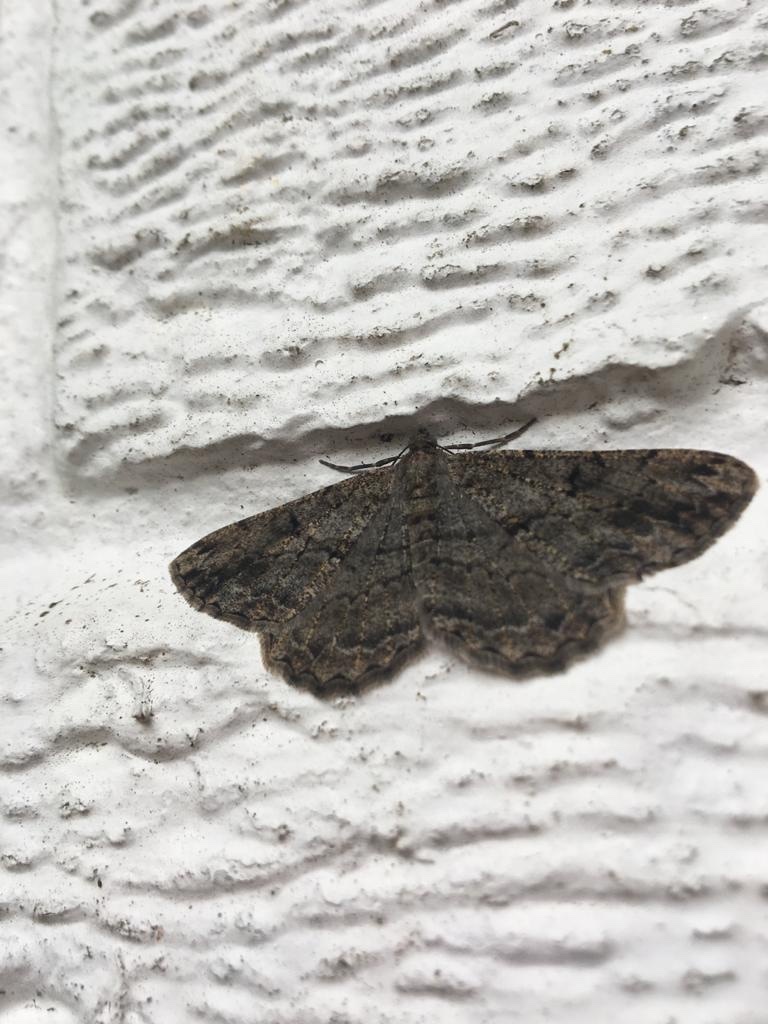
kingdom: Animalia
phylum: Arthropoda
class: Insecta
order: Lepidoptera
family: Geometridae
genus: Peribatodes
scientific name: Peribatodes rhomboidaria
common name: Willow beauty
